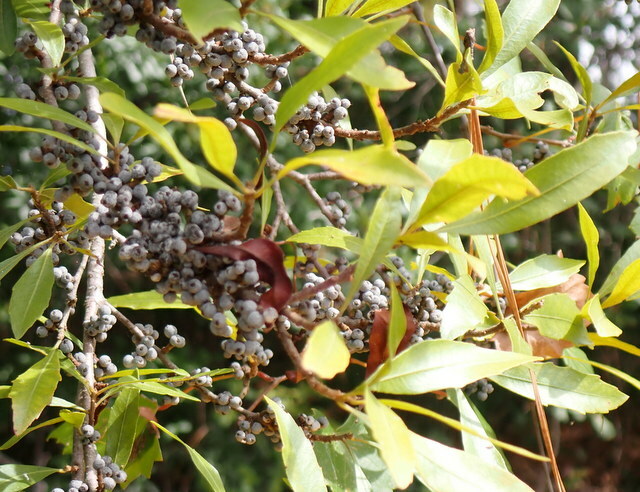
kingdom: Plantae
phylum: Tracheophyta
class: Magnoliopsida
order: Fagales
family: Myricaceae
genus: Morella
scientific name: Morella cerifera
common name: Wax myrtle
